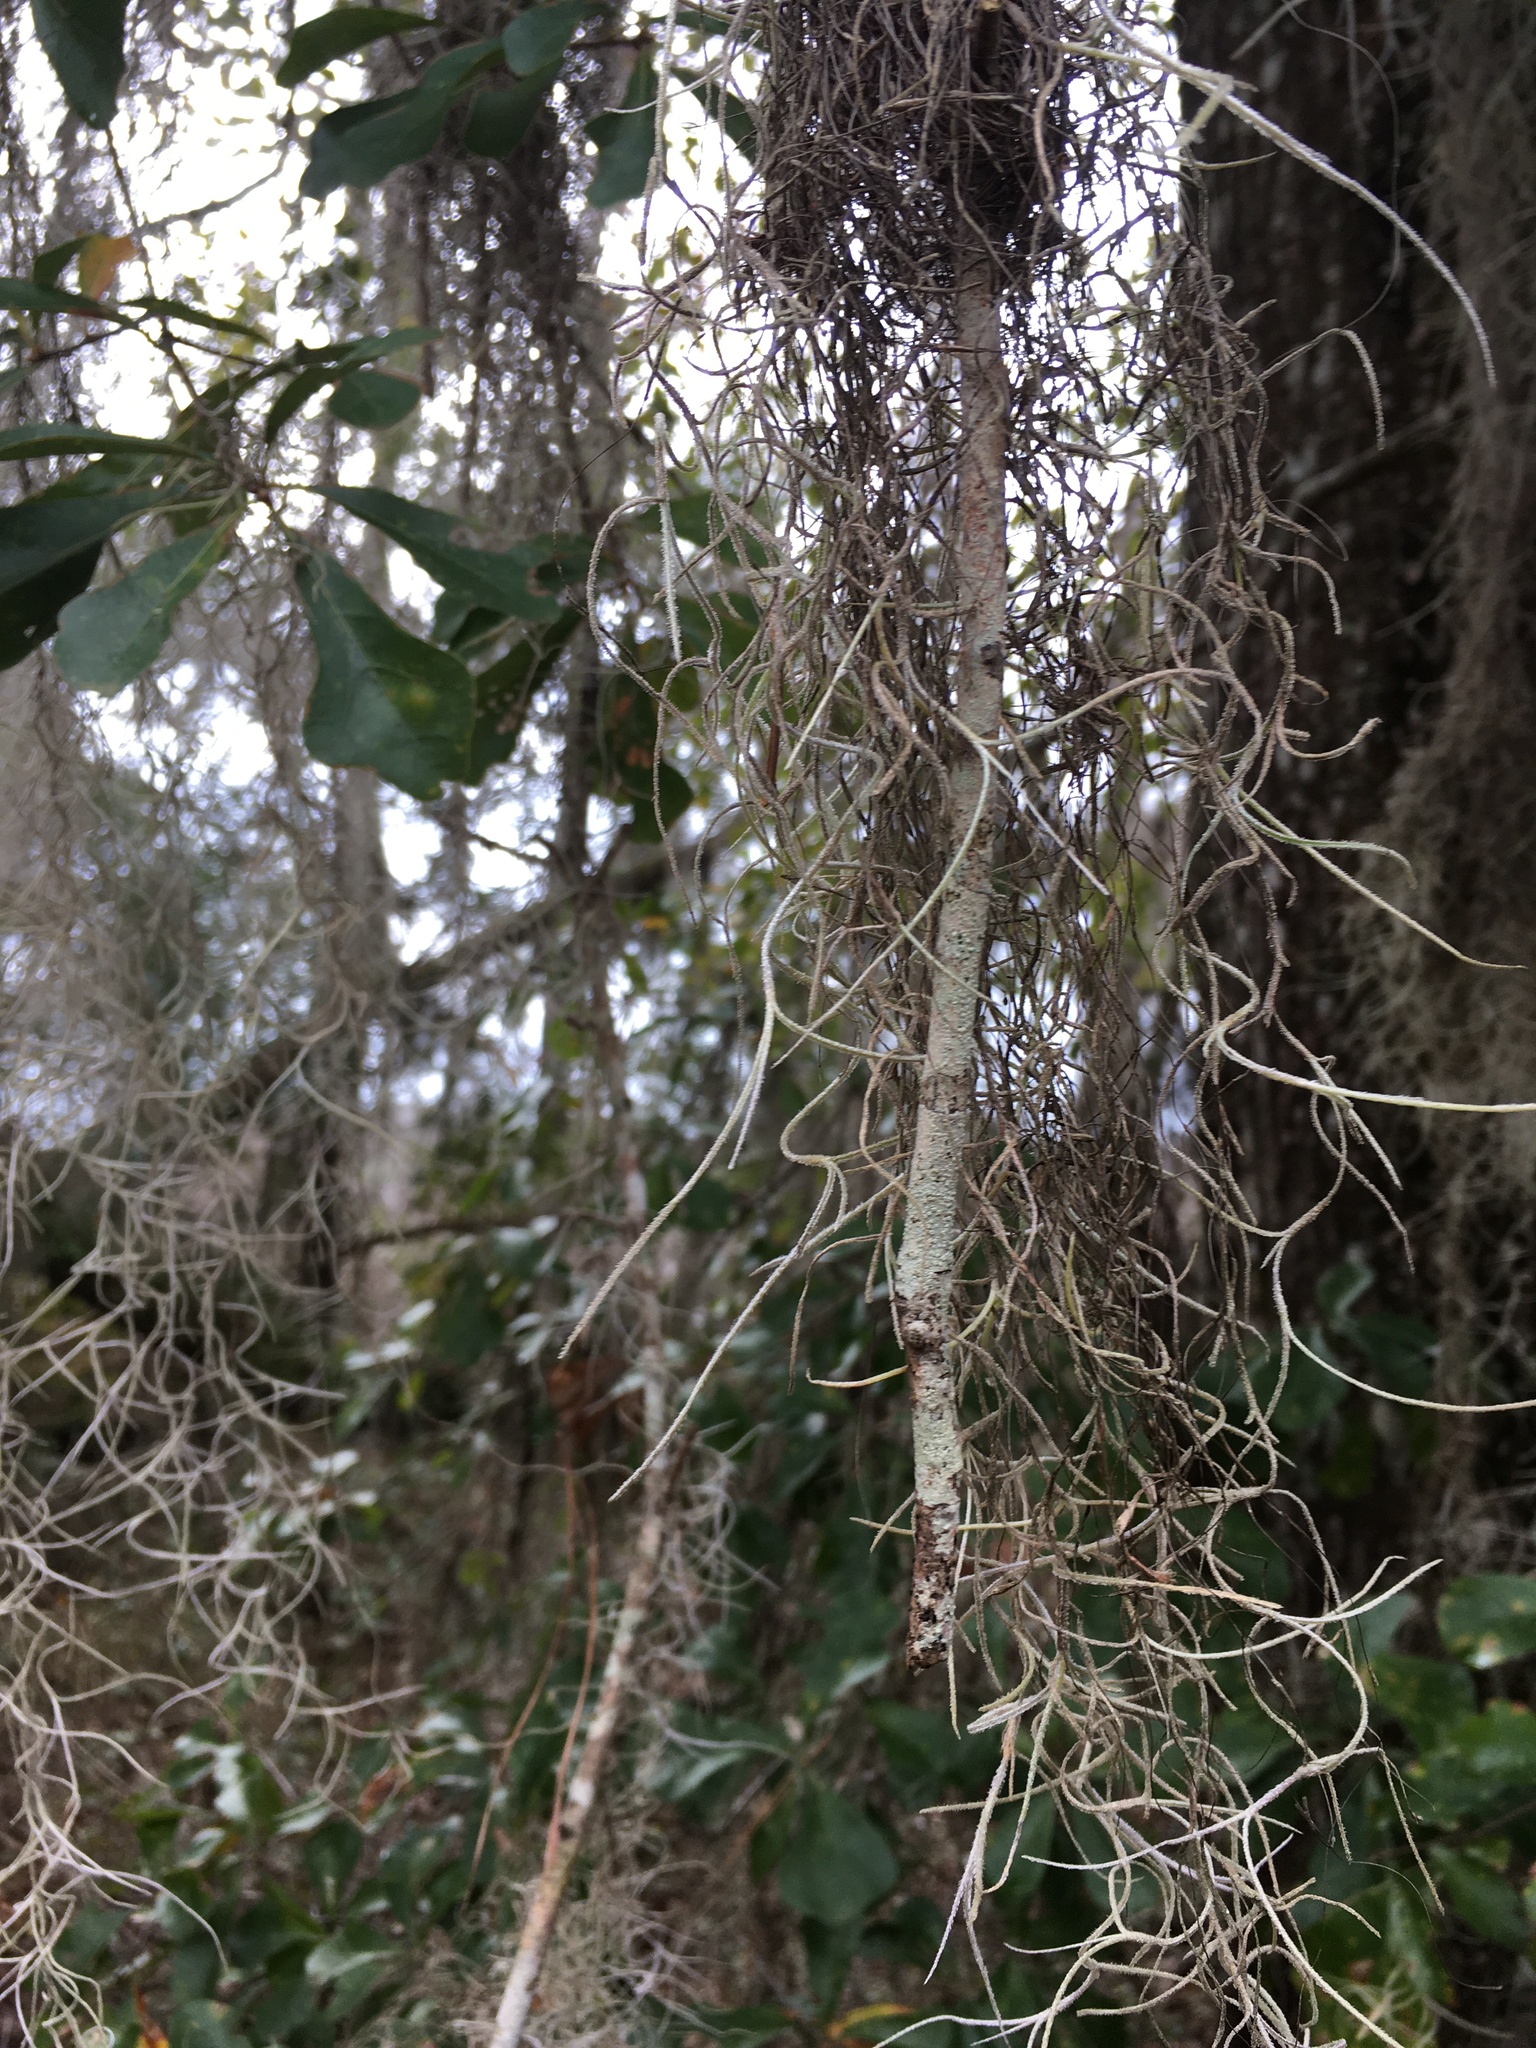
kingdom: Plantae
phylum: Tracheophyta
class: Liliopsida
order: Poales
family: Bromeliaceae
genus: Tillandsia
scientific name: Tillandsia usneoides
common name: Spanish moss
